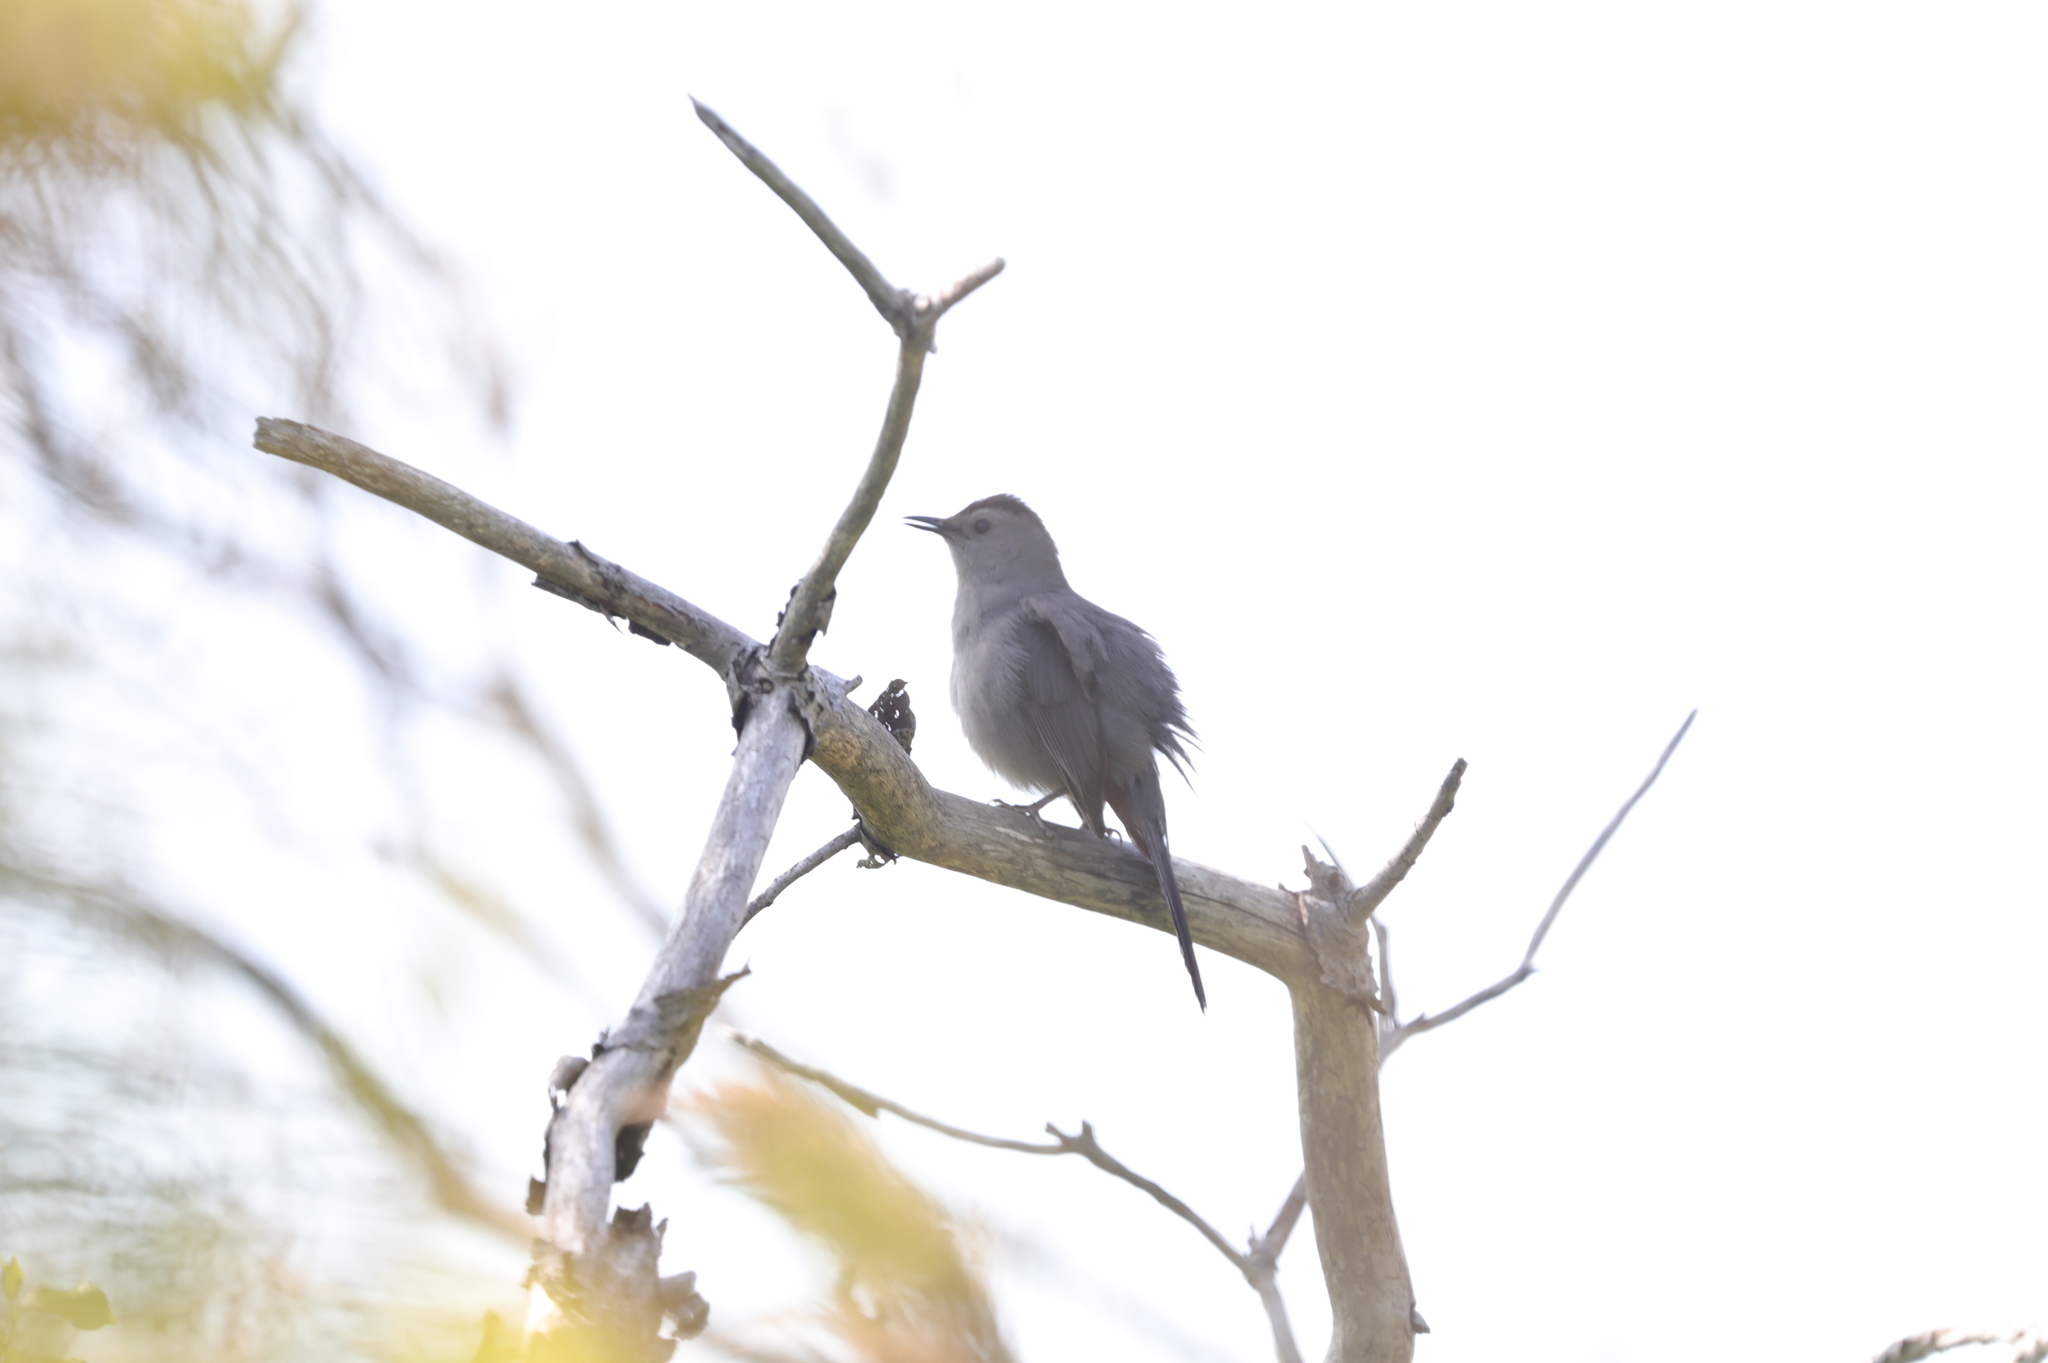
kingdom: Animalia
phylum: Chordata
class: Aves
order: Passeriformes
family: Mimidae
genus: Dumetella
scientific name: Dumetella carolinensis
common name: Gray catbird
